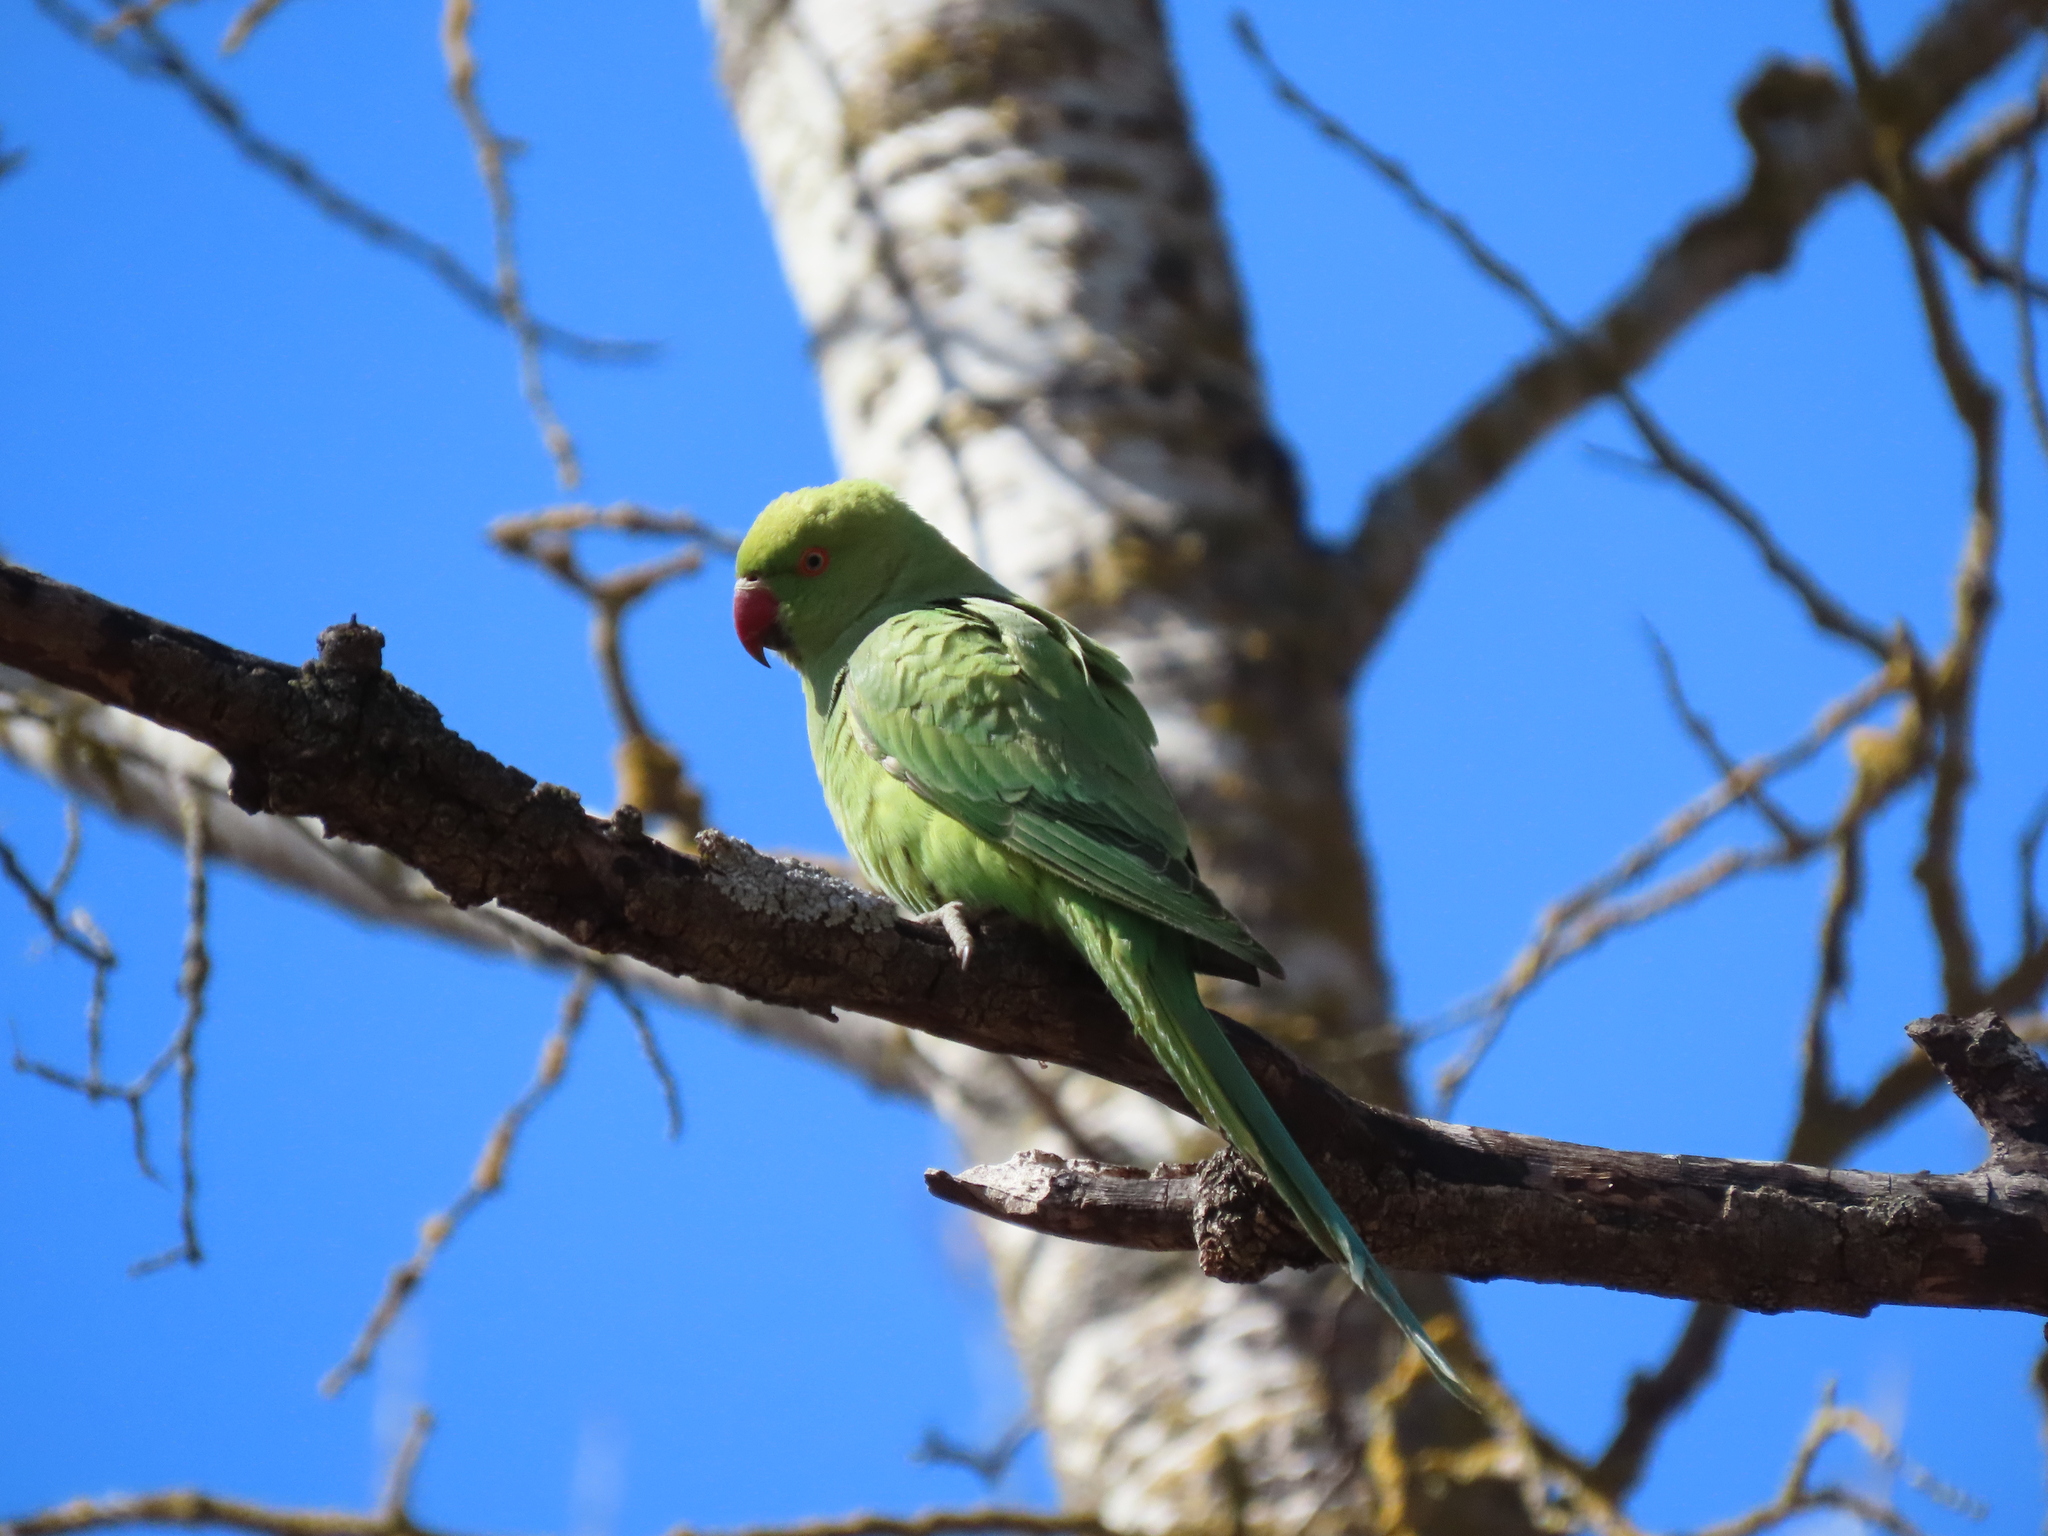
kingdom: Animalia
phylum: Chordata
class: Aves
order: Psittaciformes
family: Psittacidae
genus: Psittacula
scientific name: Psittacula krameri
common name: Rose-ringed parakeet
